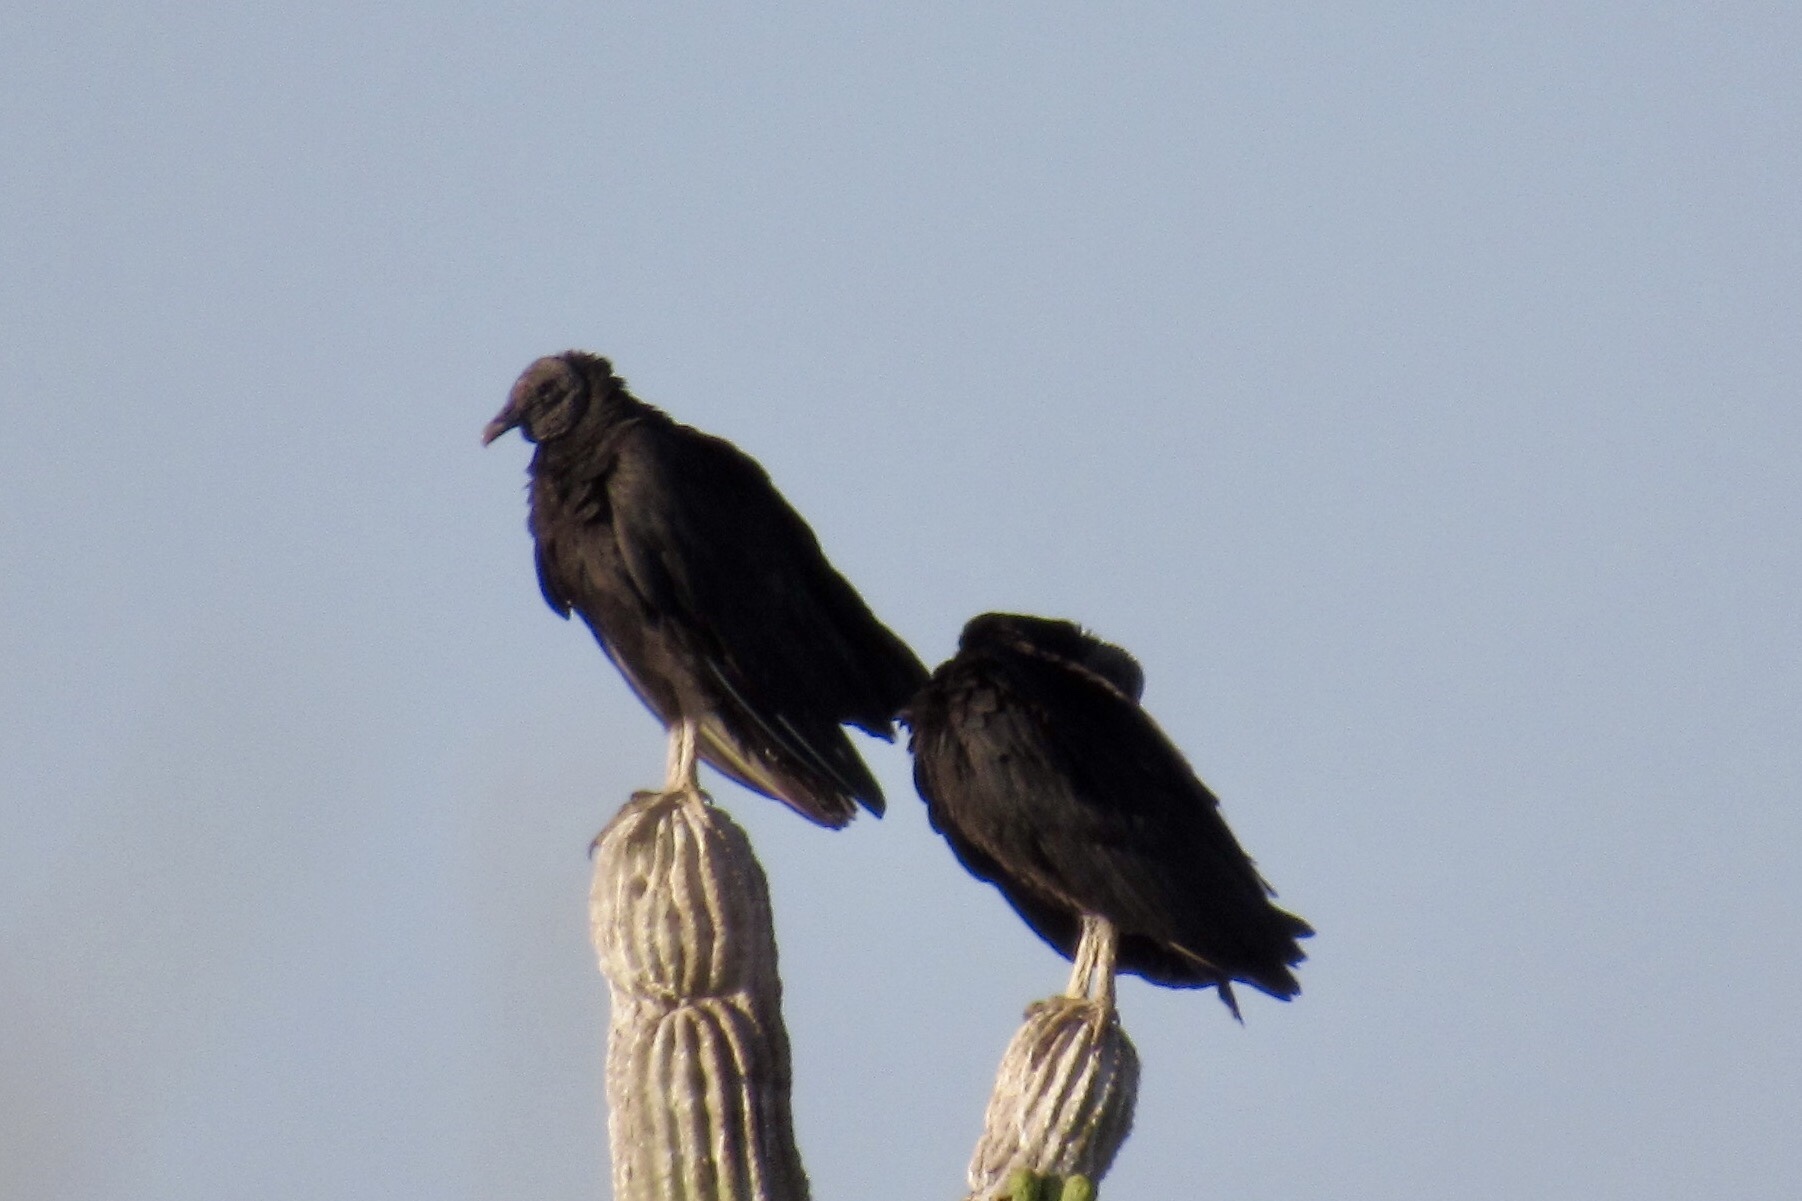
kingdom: Animalia
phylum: Chordata
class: Aves
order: Accipitriformes
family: Cathartidae
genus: Coragyps
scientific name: Coragyps atratus
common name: Black vulture
